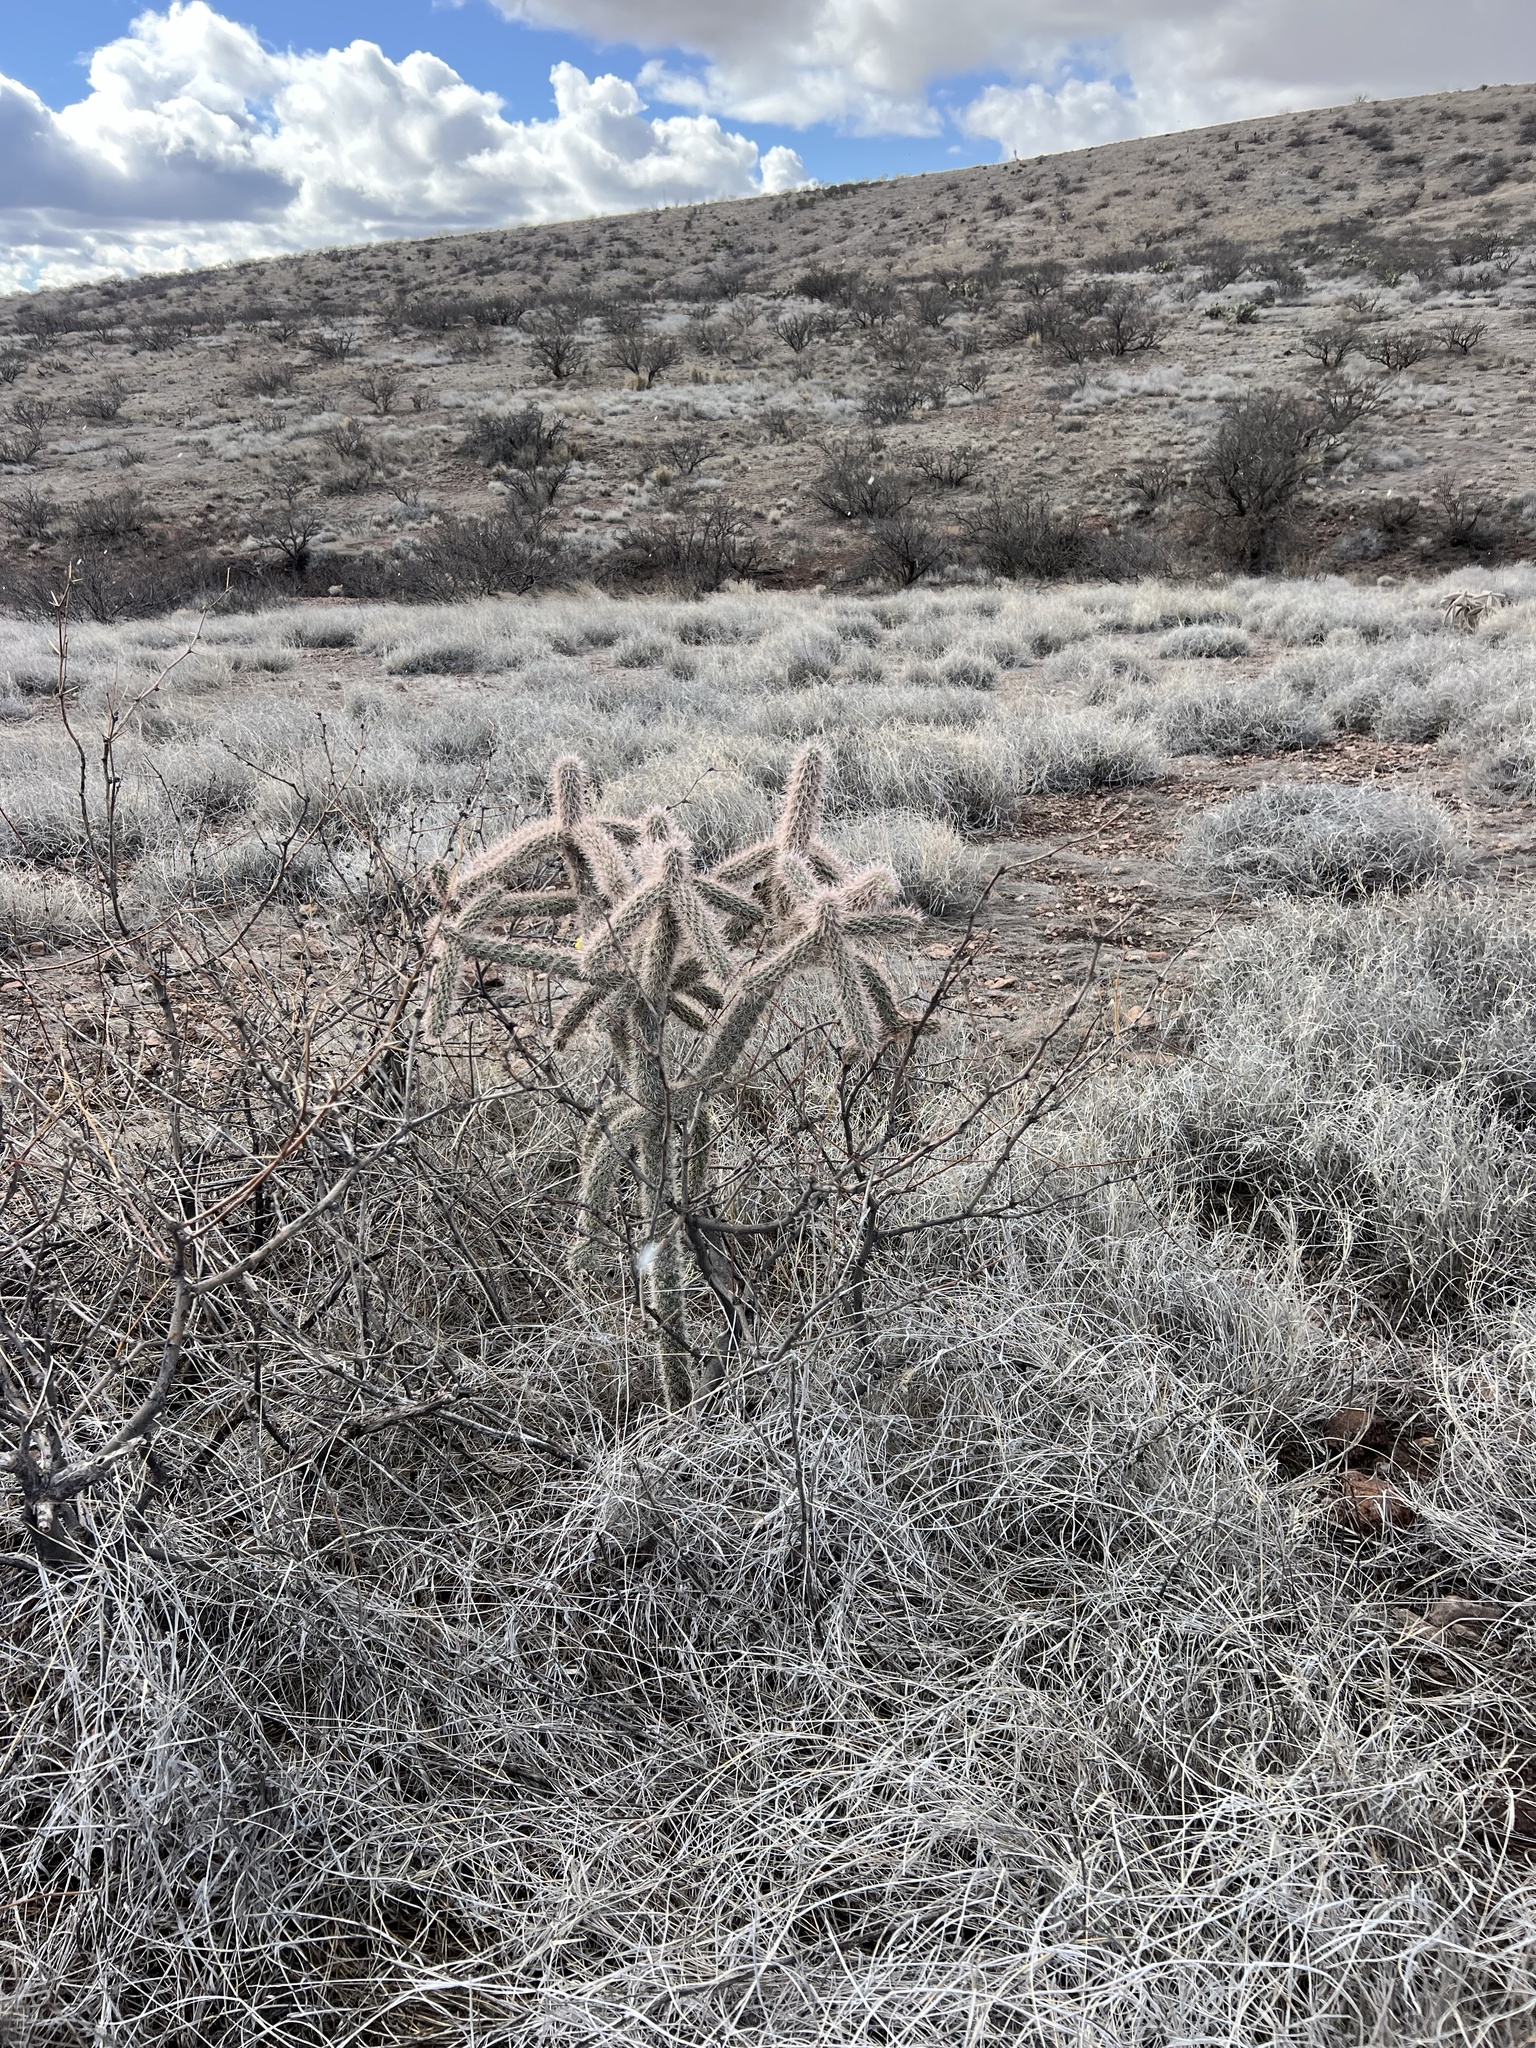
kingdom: Plantae
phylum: Tracheophyta
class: Magnoliopsida
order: Caryophyllales
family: Cactaceae
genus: Cylindropuntia
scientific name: Cylindropuntia imbricata
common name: Candelabrum cactus
